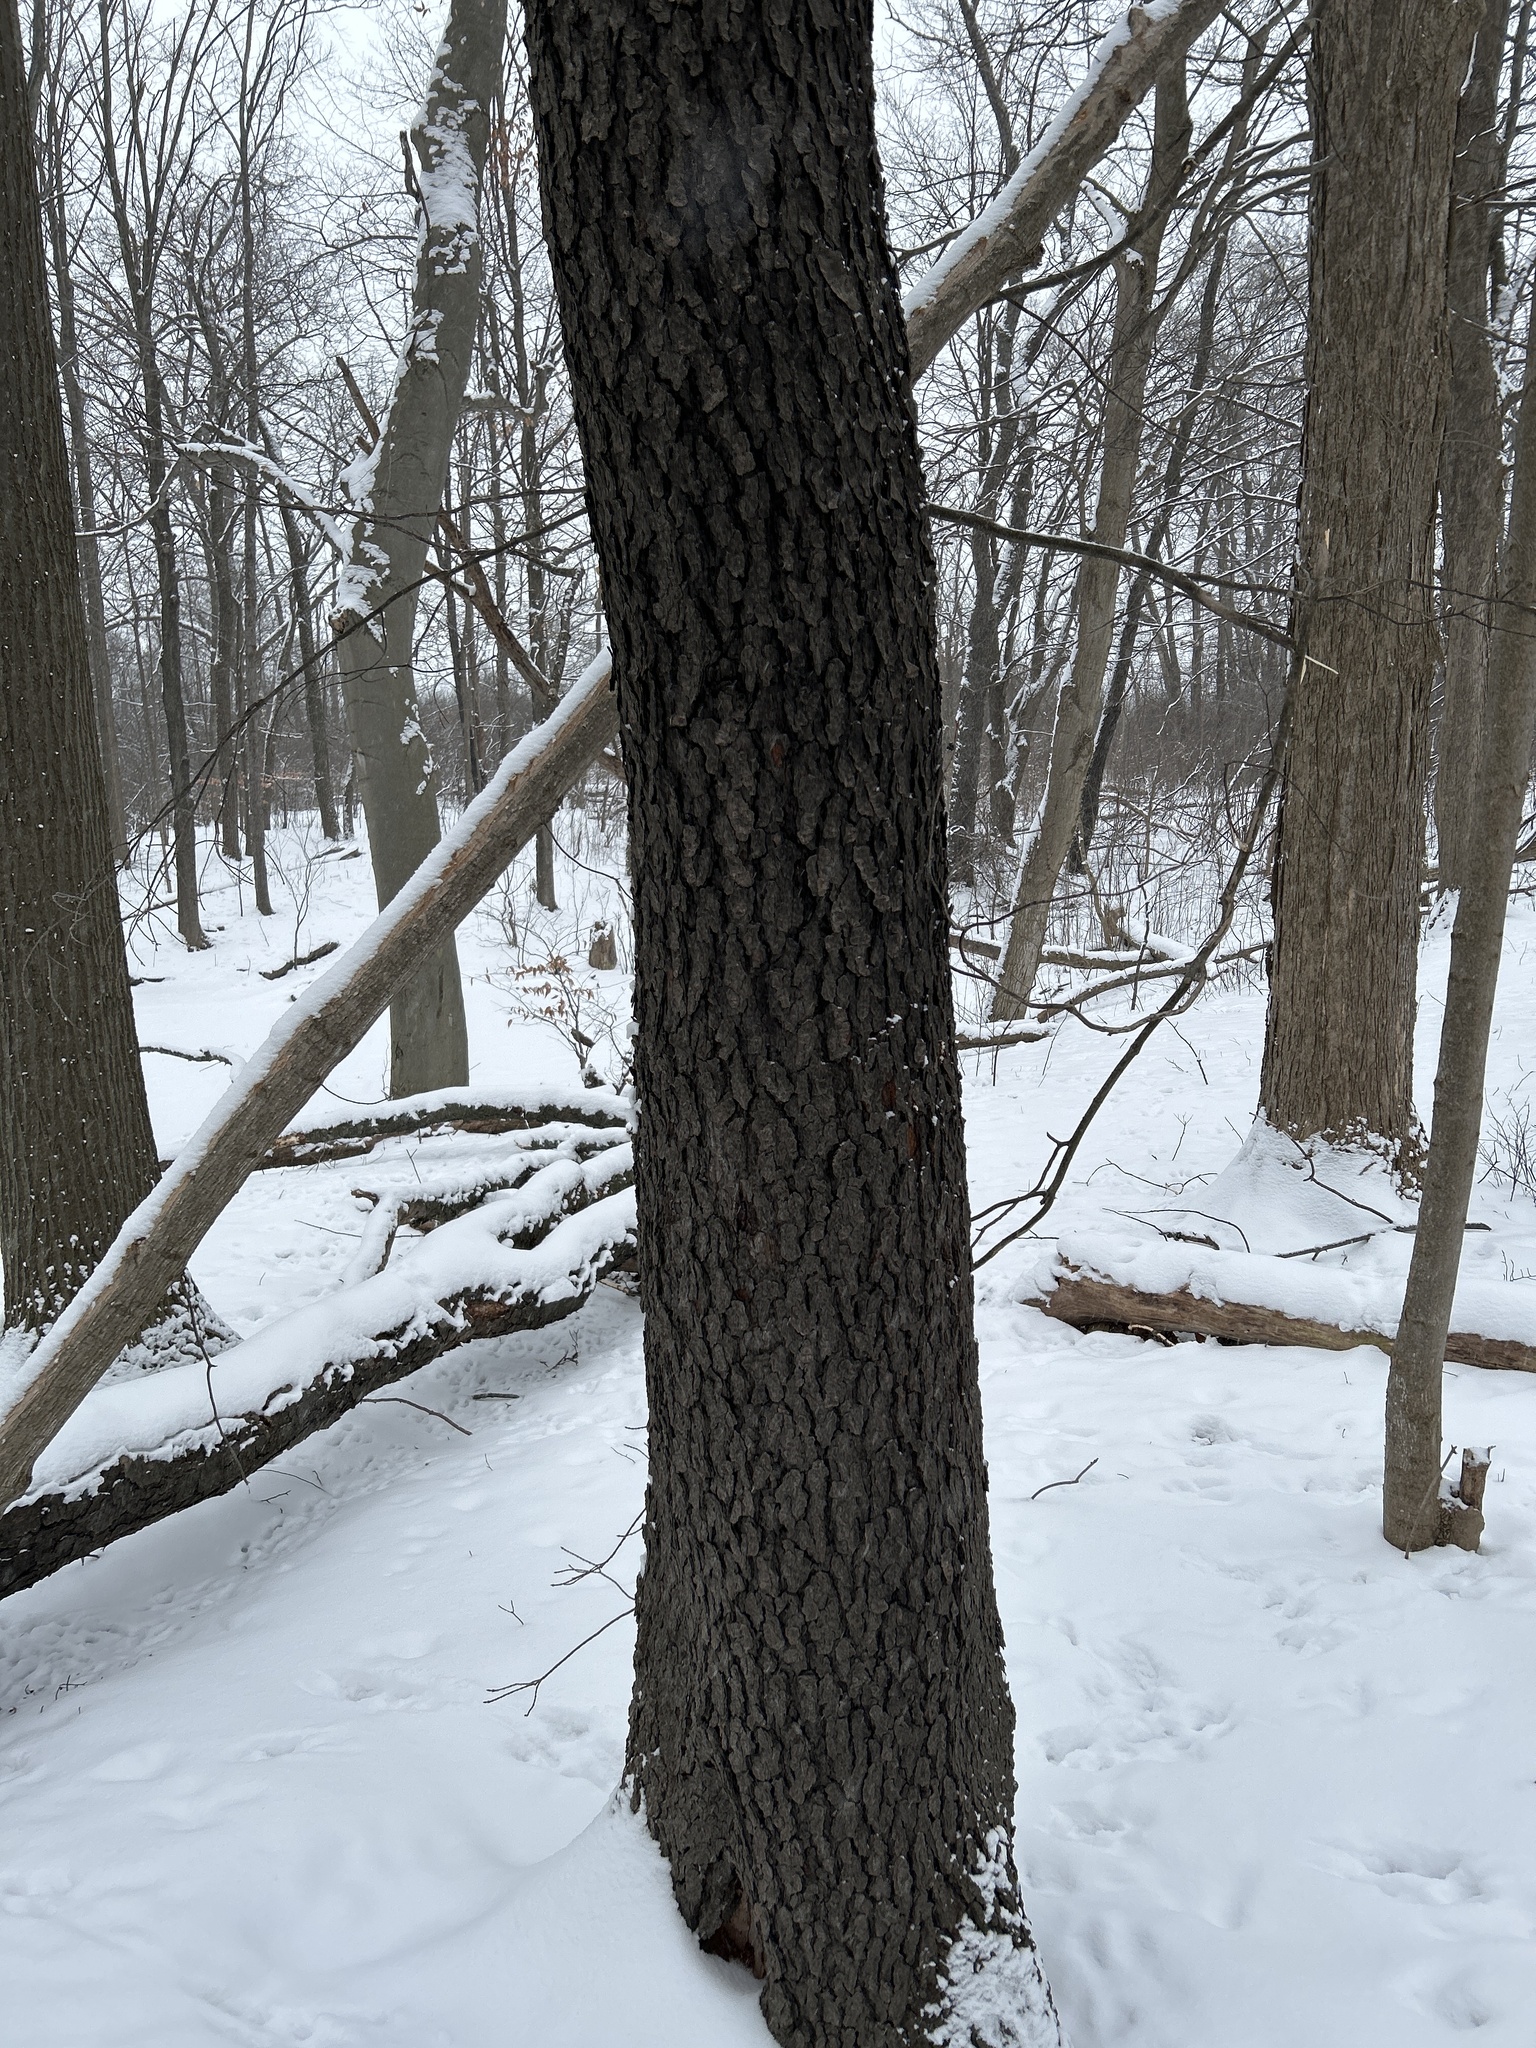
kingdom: Plantae
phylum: Tracheophyta
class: Magnoliopsida
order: Rosales
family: Rosaceae
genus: Prunus
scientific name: Prunus serotina
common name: Black cherry
